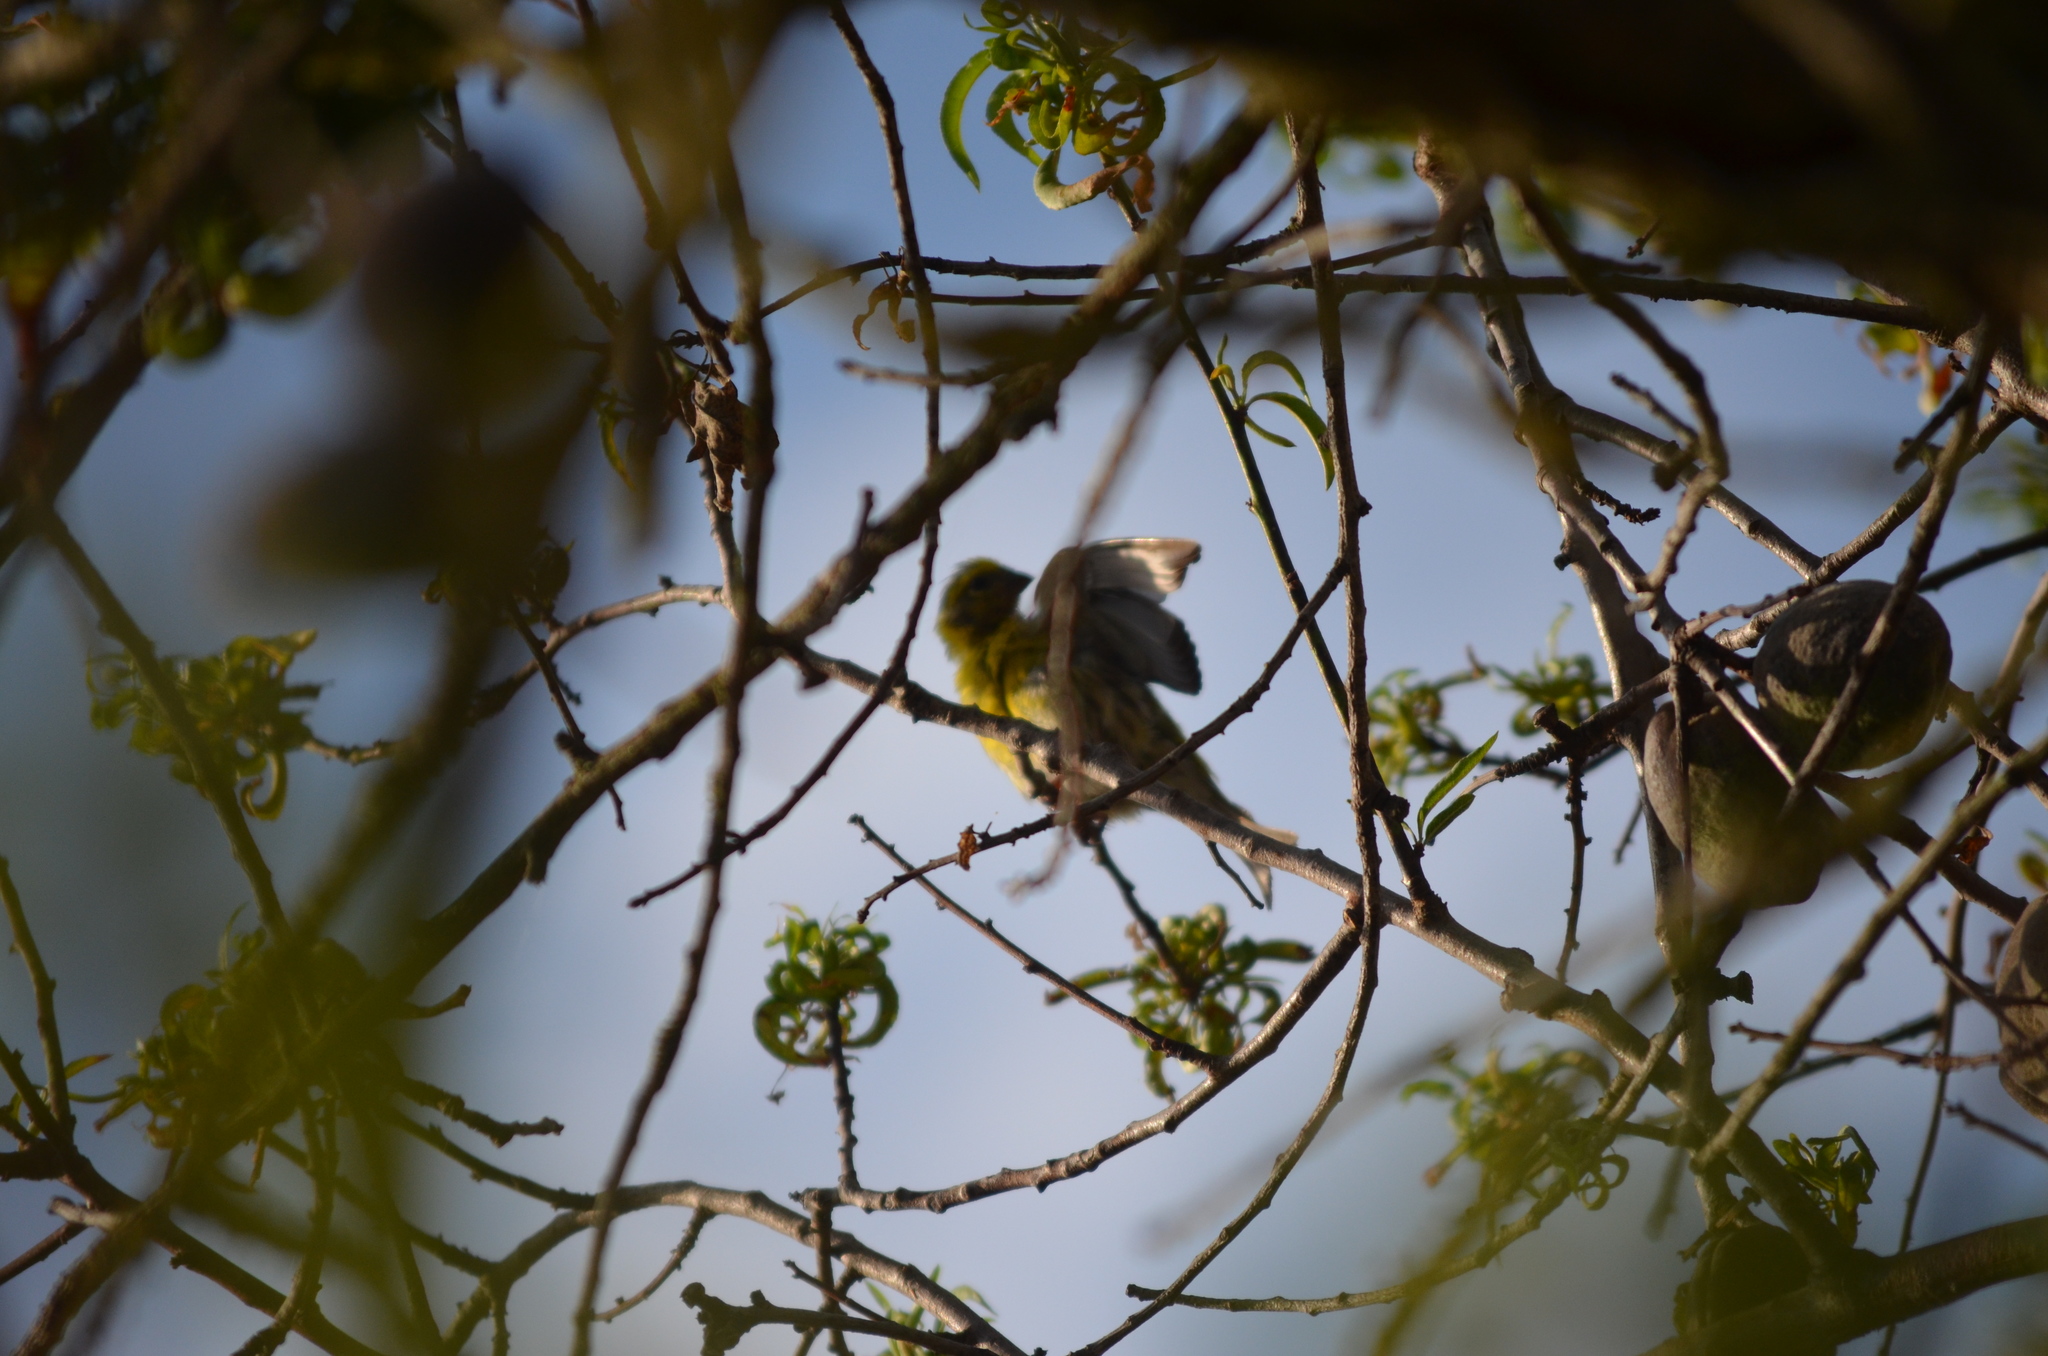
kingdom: Animalia
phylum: Chordata
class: Aves
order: Passeriformes
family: Fringillidae
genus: Serinus
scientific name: Serinus serinus
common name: European serin
